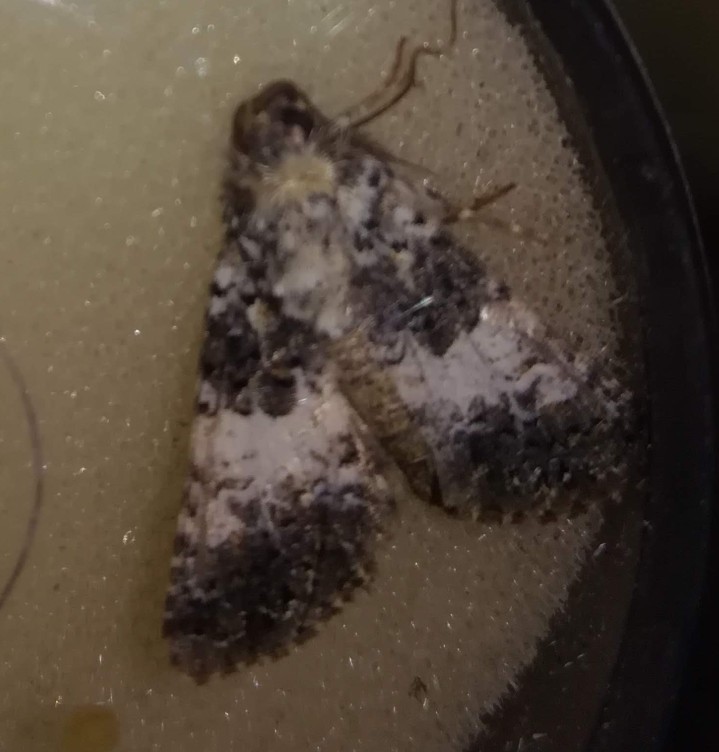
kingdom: Animalia
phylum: Arthropoda
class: Insecta
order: Lepidoptera
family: Noctuidae
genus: Hadena
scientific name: Hadena compta
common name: Varied coronet
